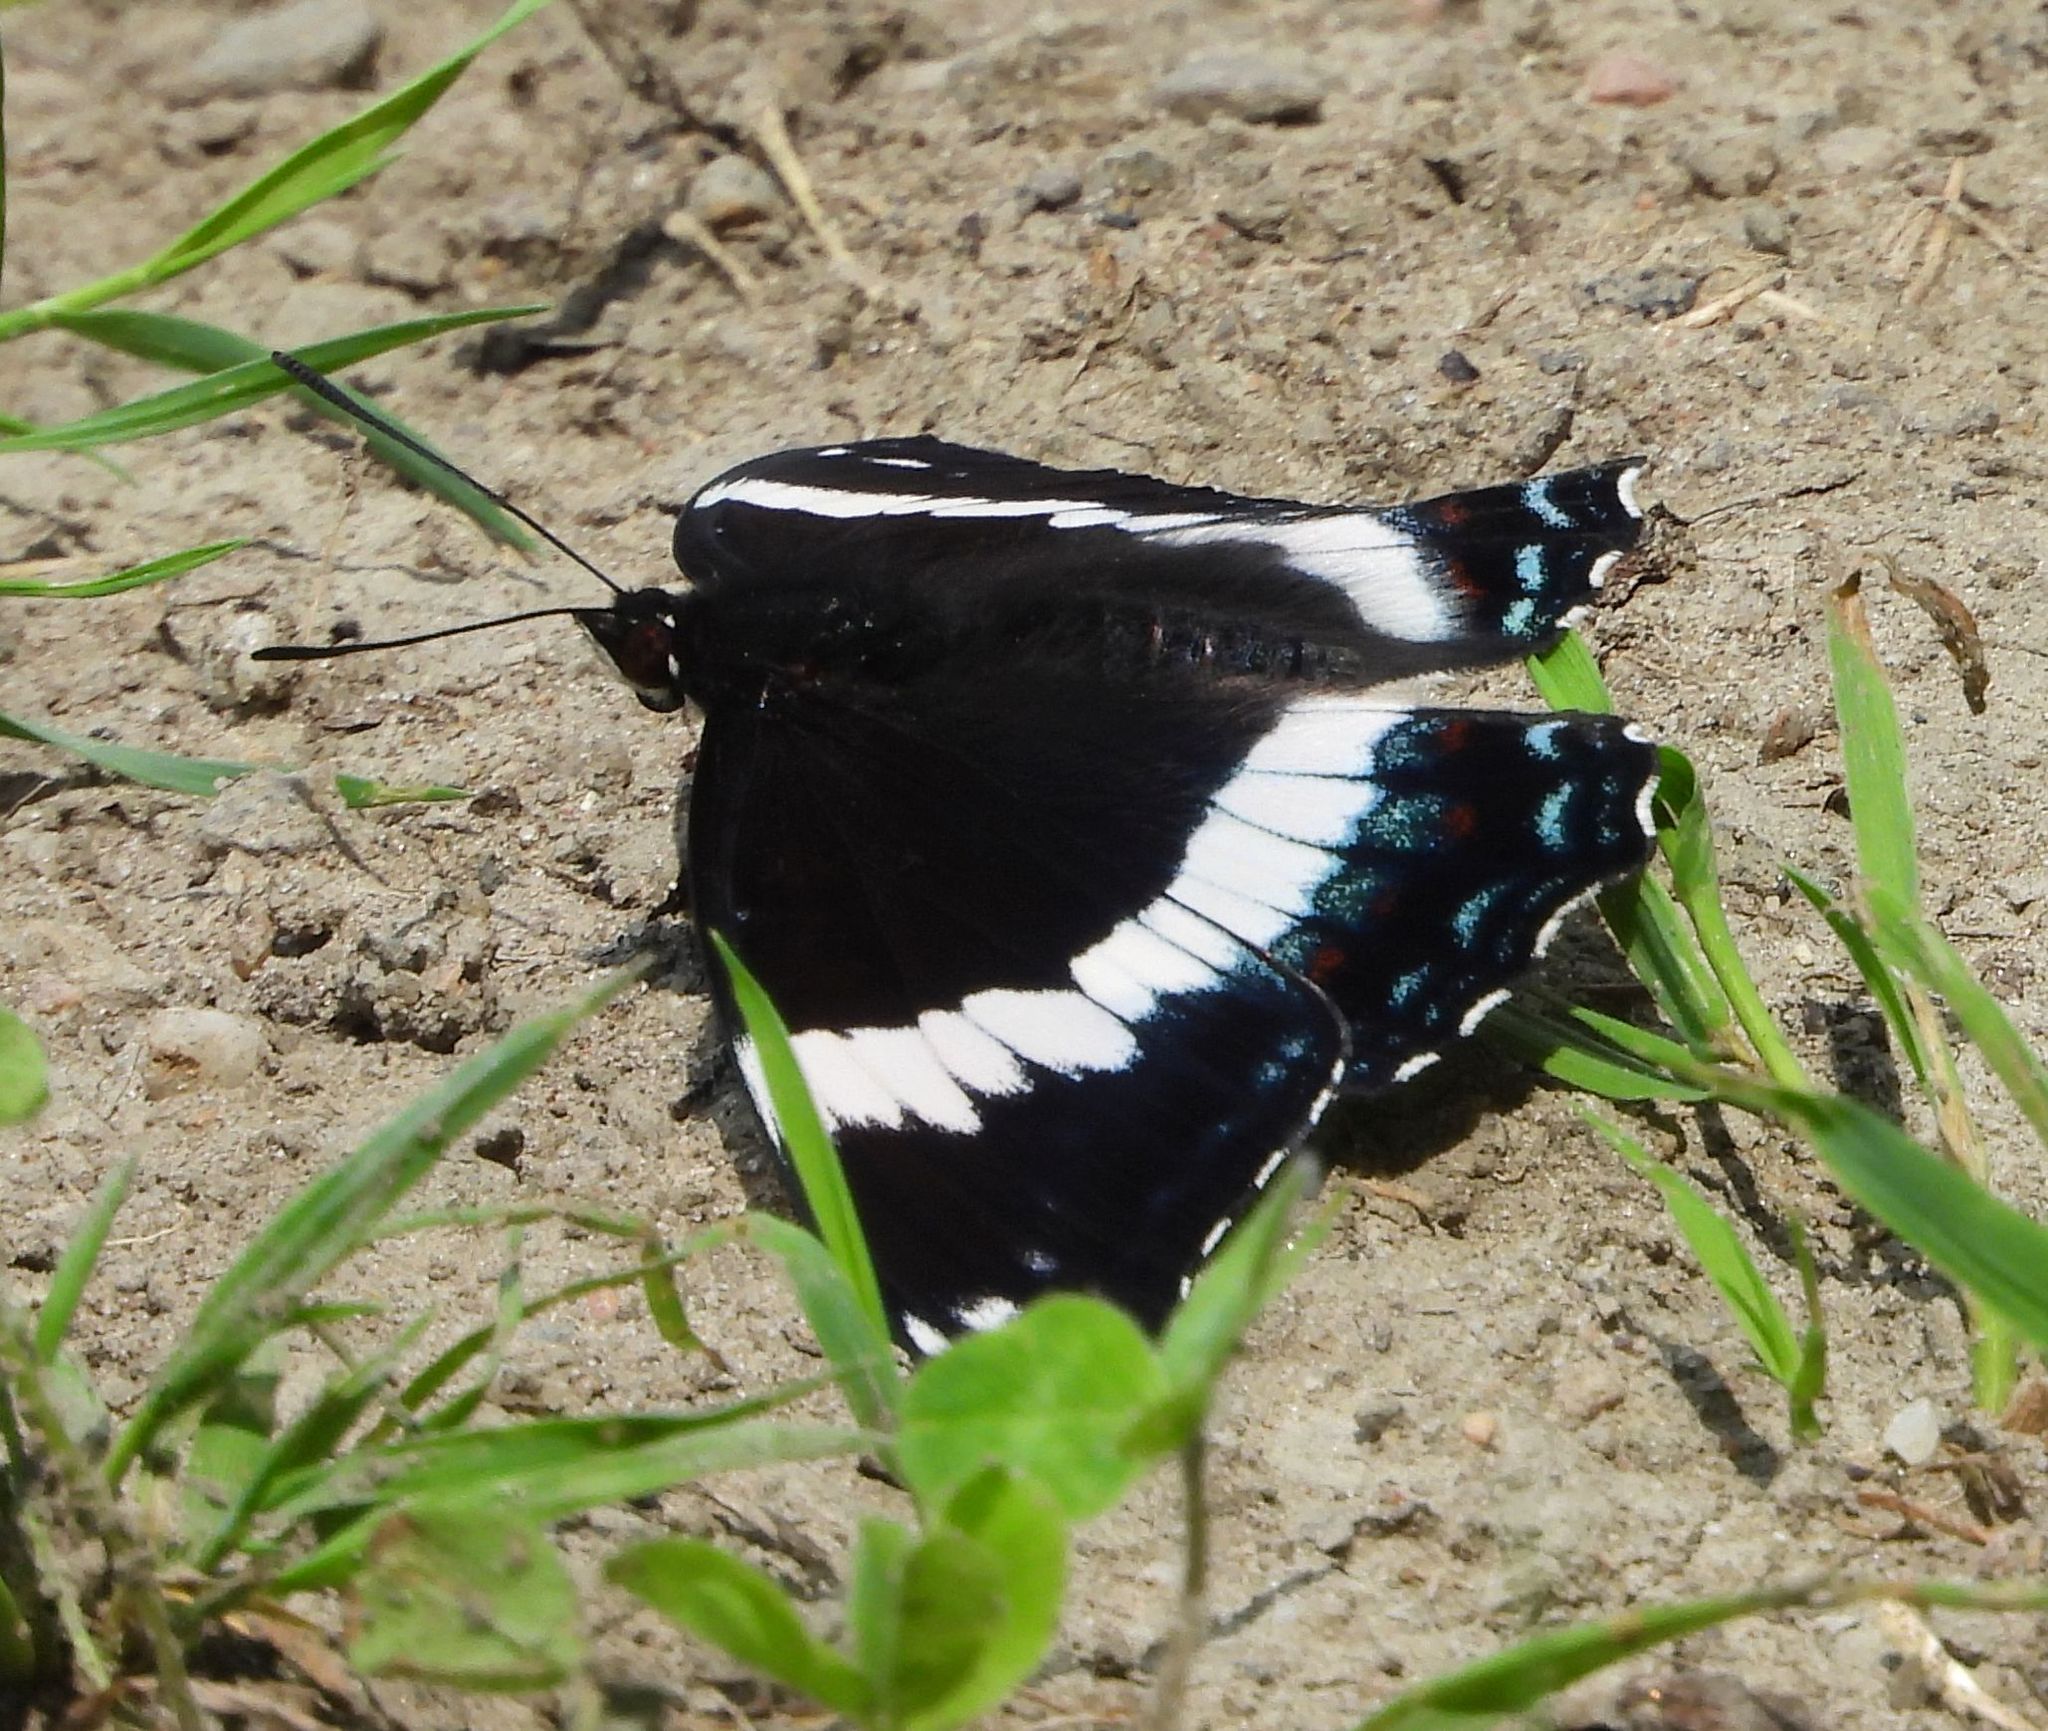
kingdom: Animalia
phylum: Arthropoda
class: Insecta
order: Lepidoptera
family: Nymphalidae
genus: Limenitis
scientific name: Limenitis arthemis
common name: Red-spotted admiral
